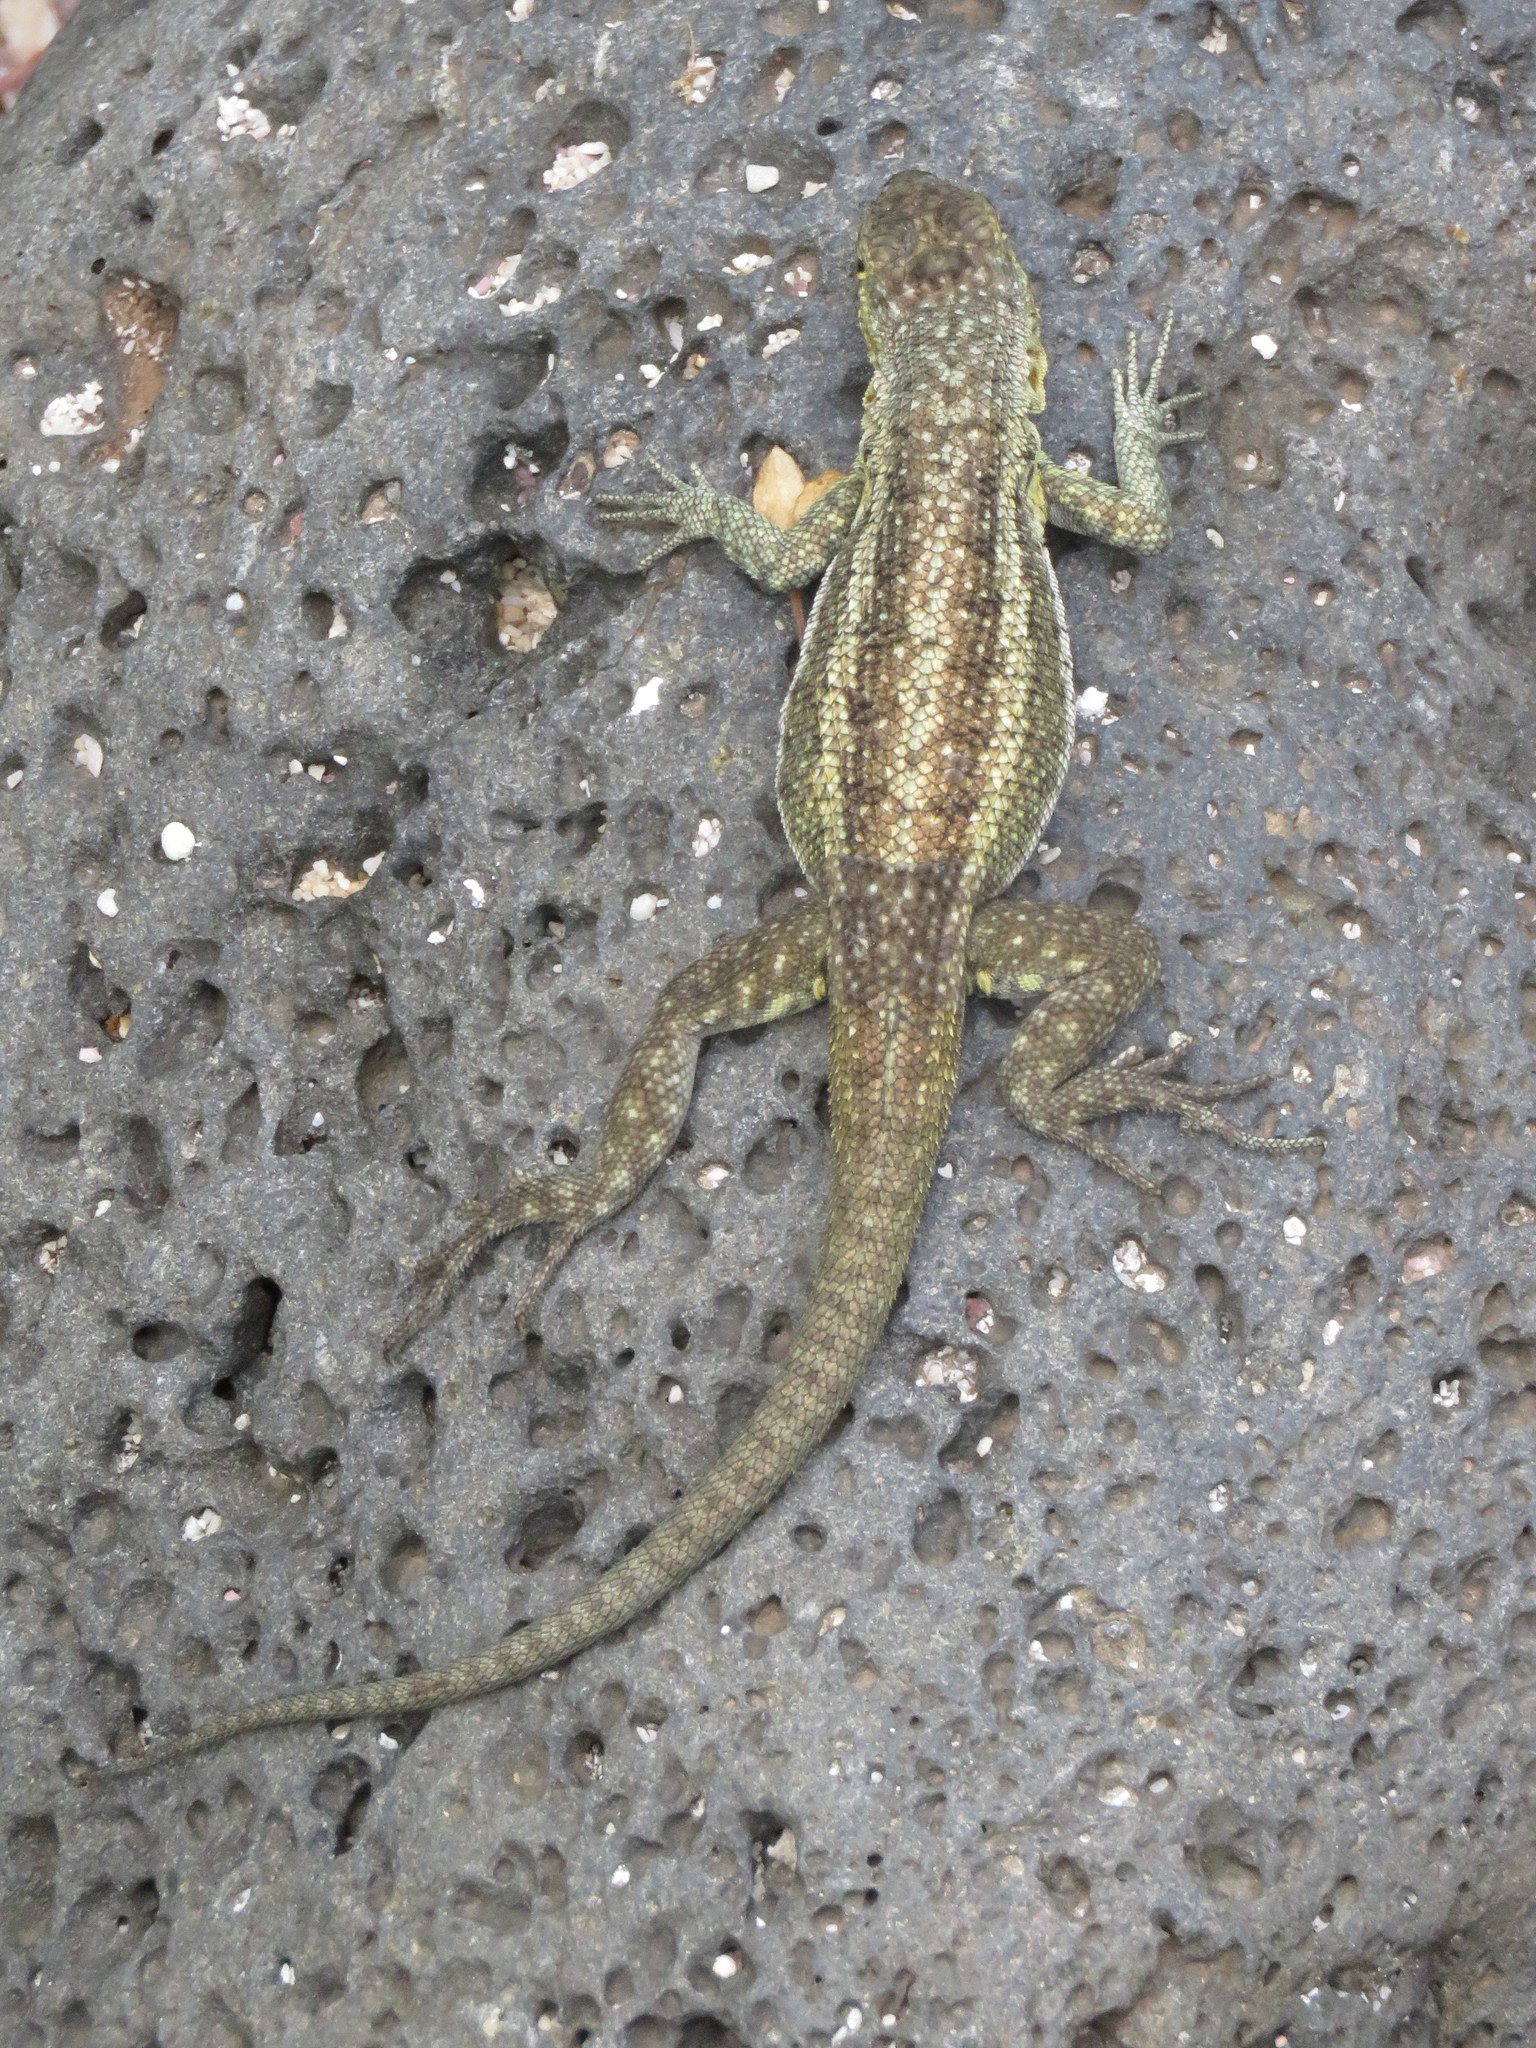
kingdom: Animalia
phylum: Chordata
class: Squamata
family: Tropiduridae
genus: Microlophus
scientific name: Microlophus indefatigabilis
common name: Galapagos lava lizard
